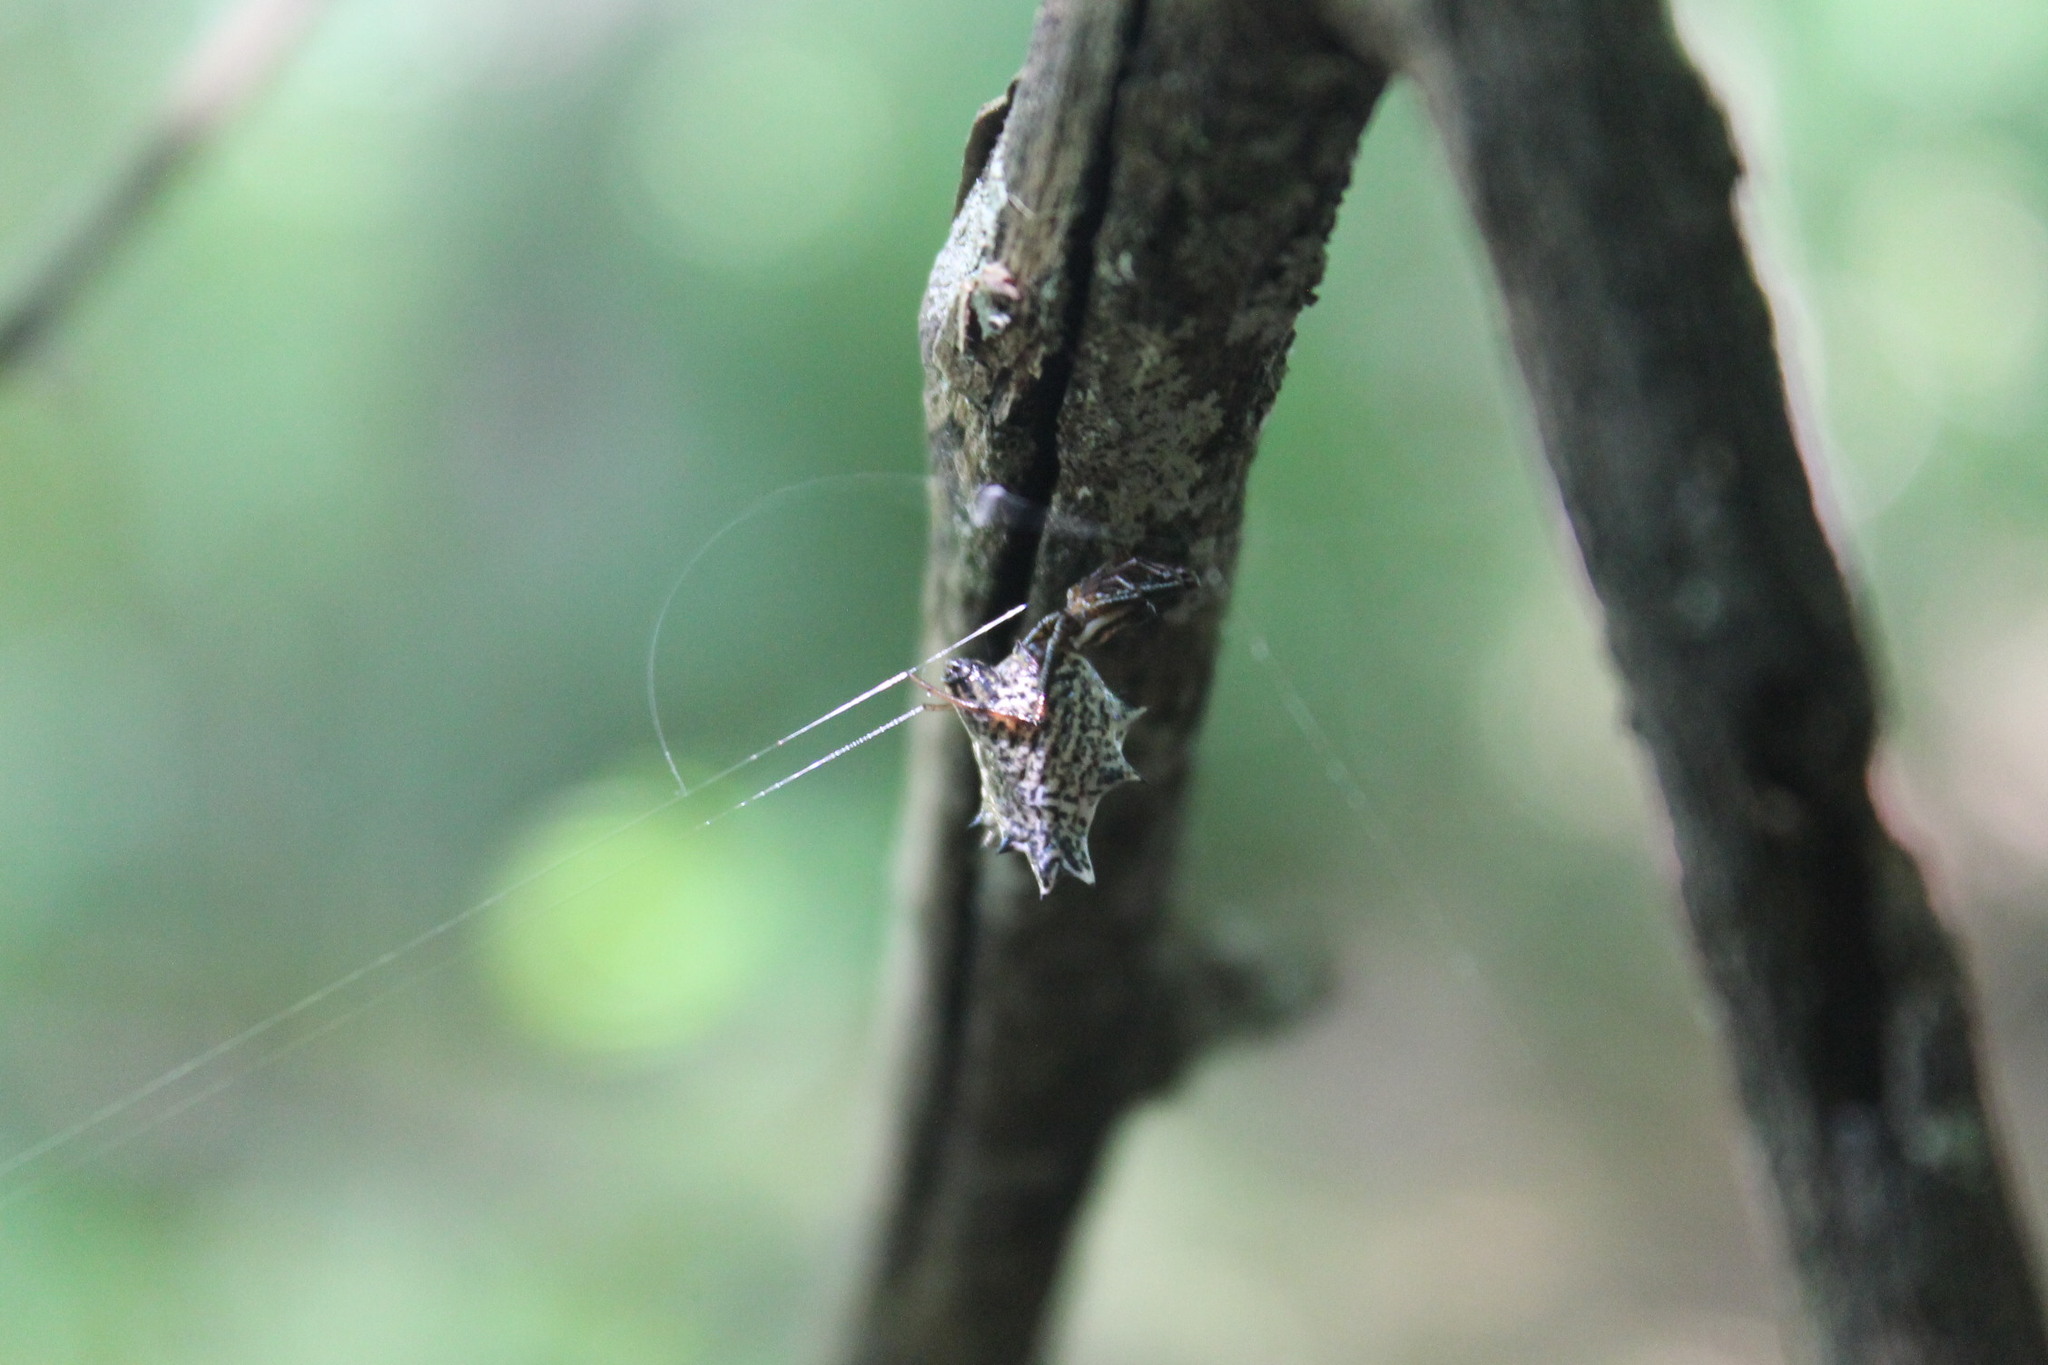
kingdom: Animalia
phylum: Arthropoda
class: Arachnida
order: Araneae
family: Araneidae
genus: Micrathena
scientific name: Micrathena gracilis
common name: Orb weavers
